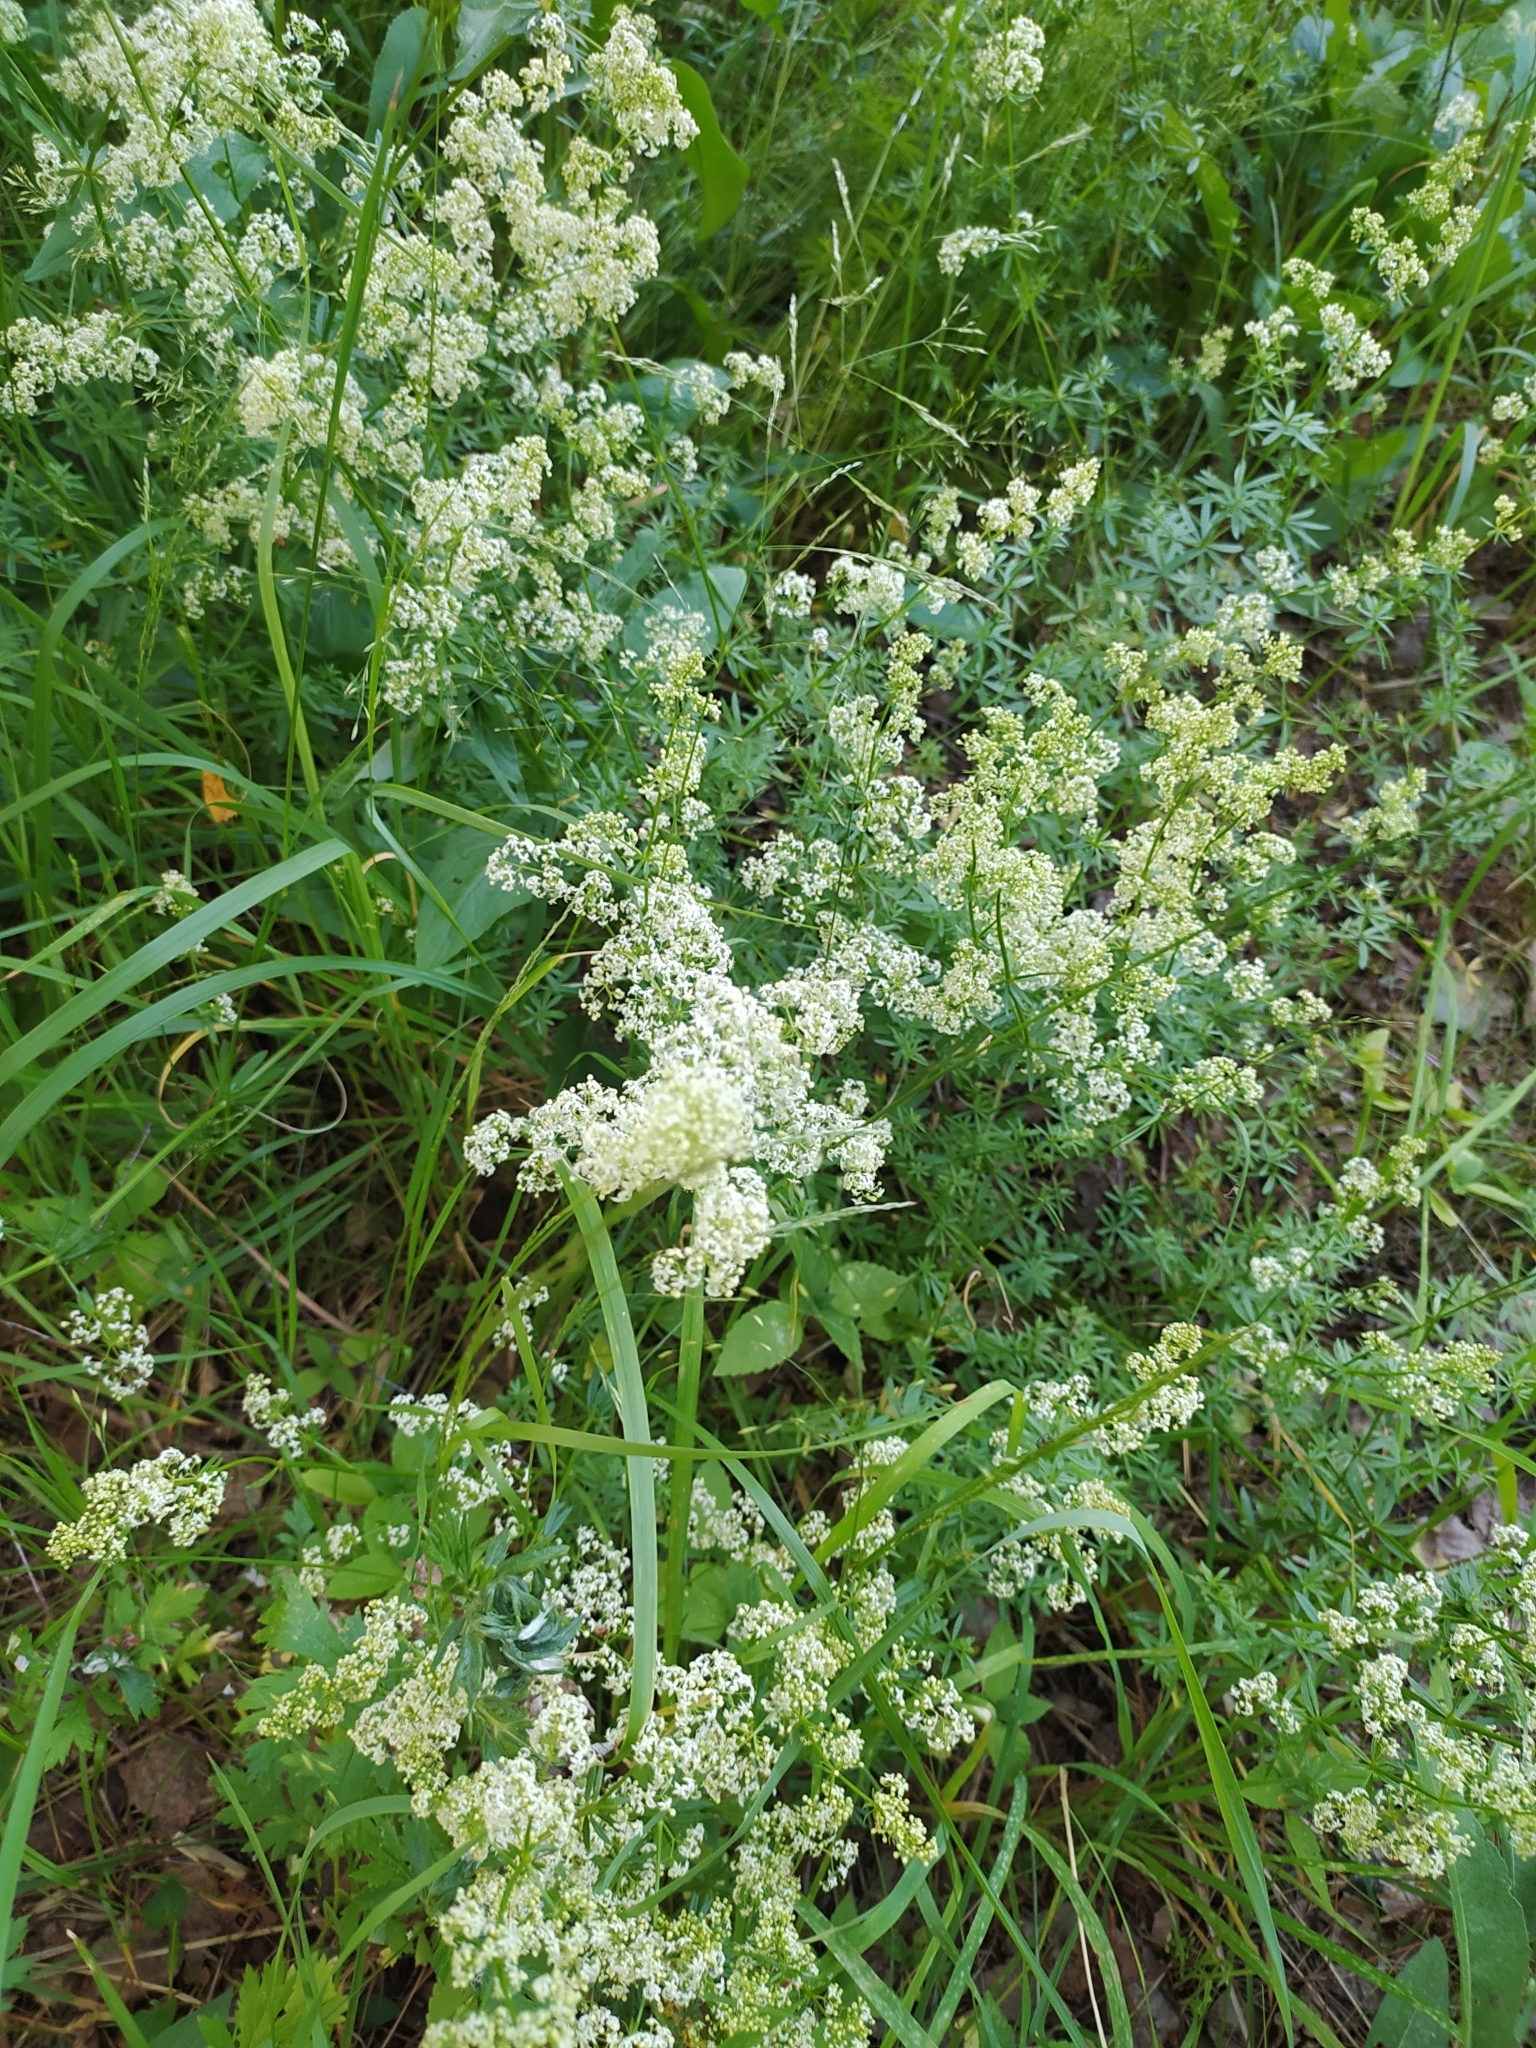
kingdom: Plantae
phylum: Tracheophyta
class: Magnoliopsida
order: Gentianales
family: Rubiaceae
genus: Galium
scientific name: Galium mollugo
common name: Hedge bedstraw
